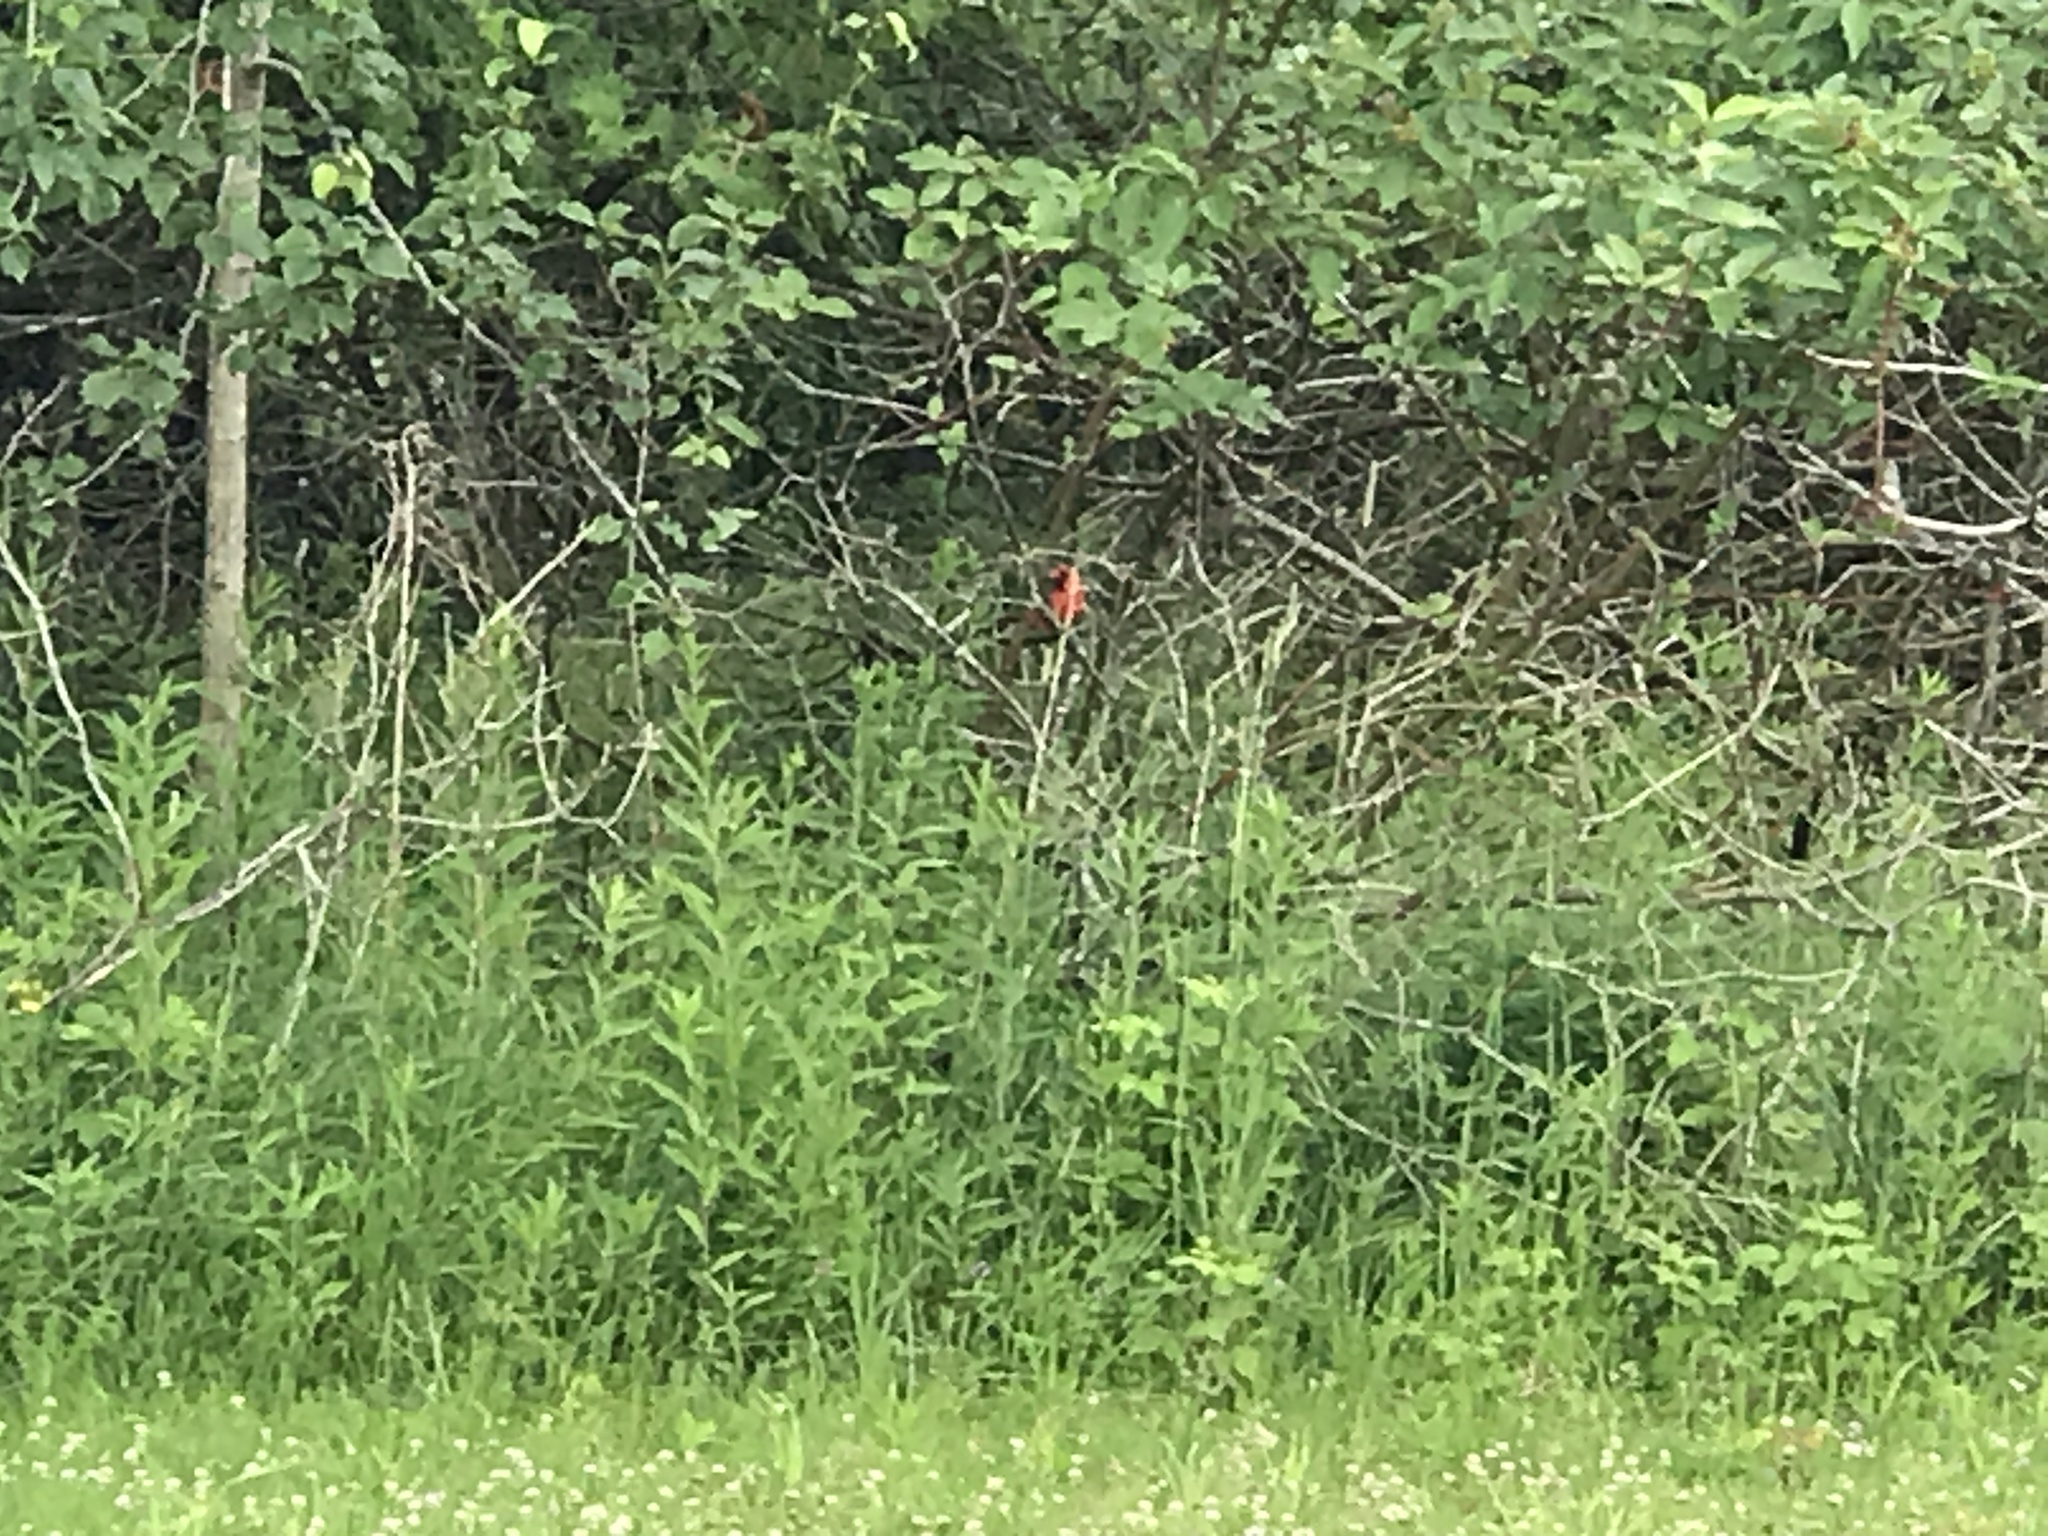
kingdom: Animalia
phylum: Chordata
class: Aves
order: Passeriformes
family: Cardinalidae
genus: Cardinalis
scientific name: Cardinalis cardinalis
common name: Northern cardinal
